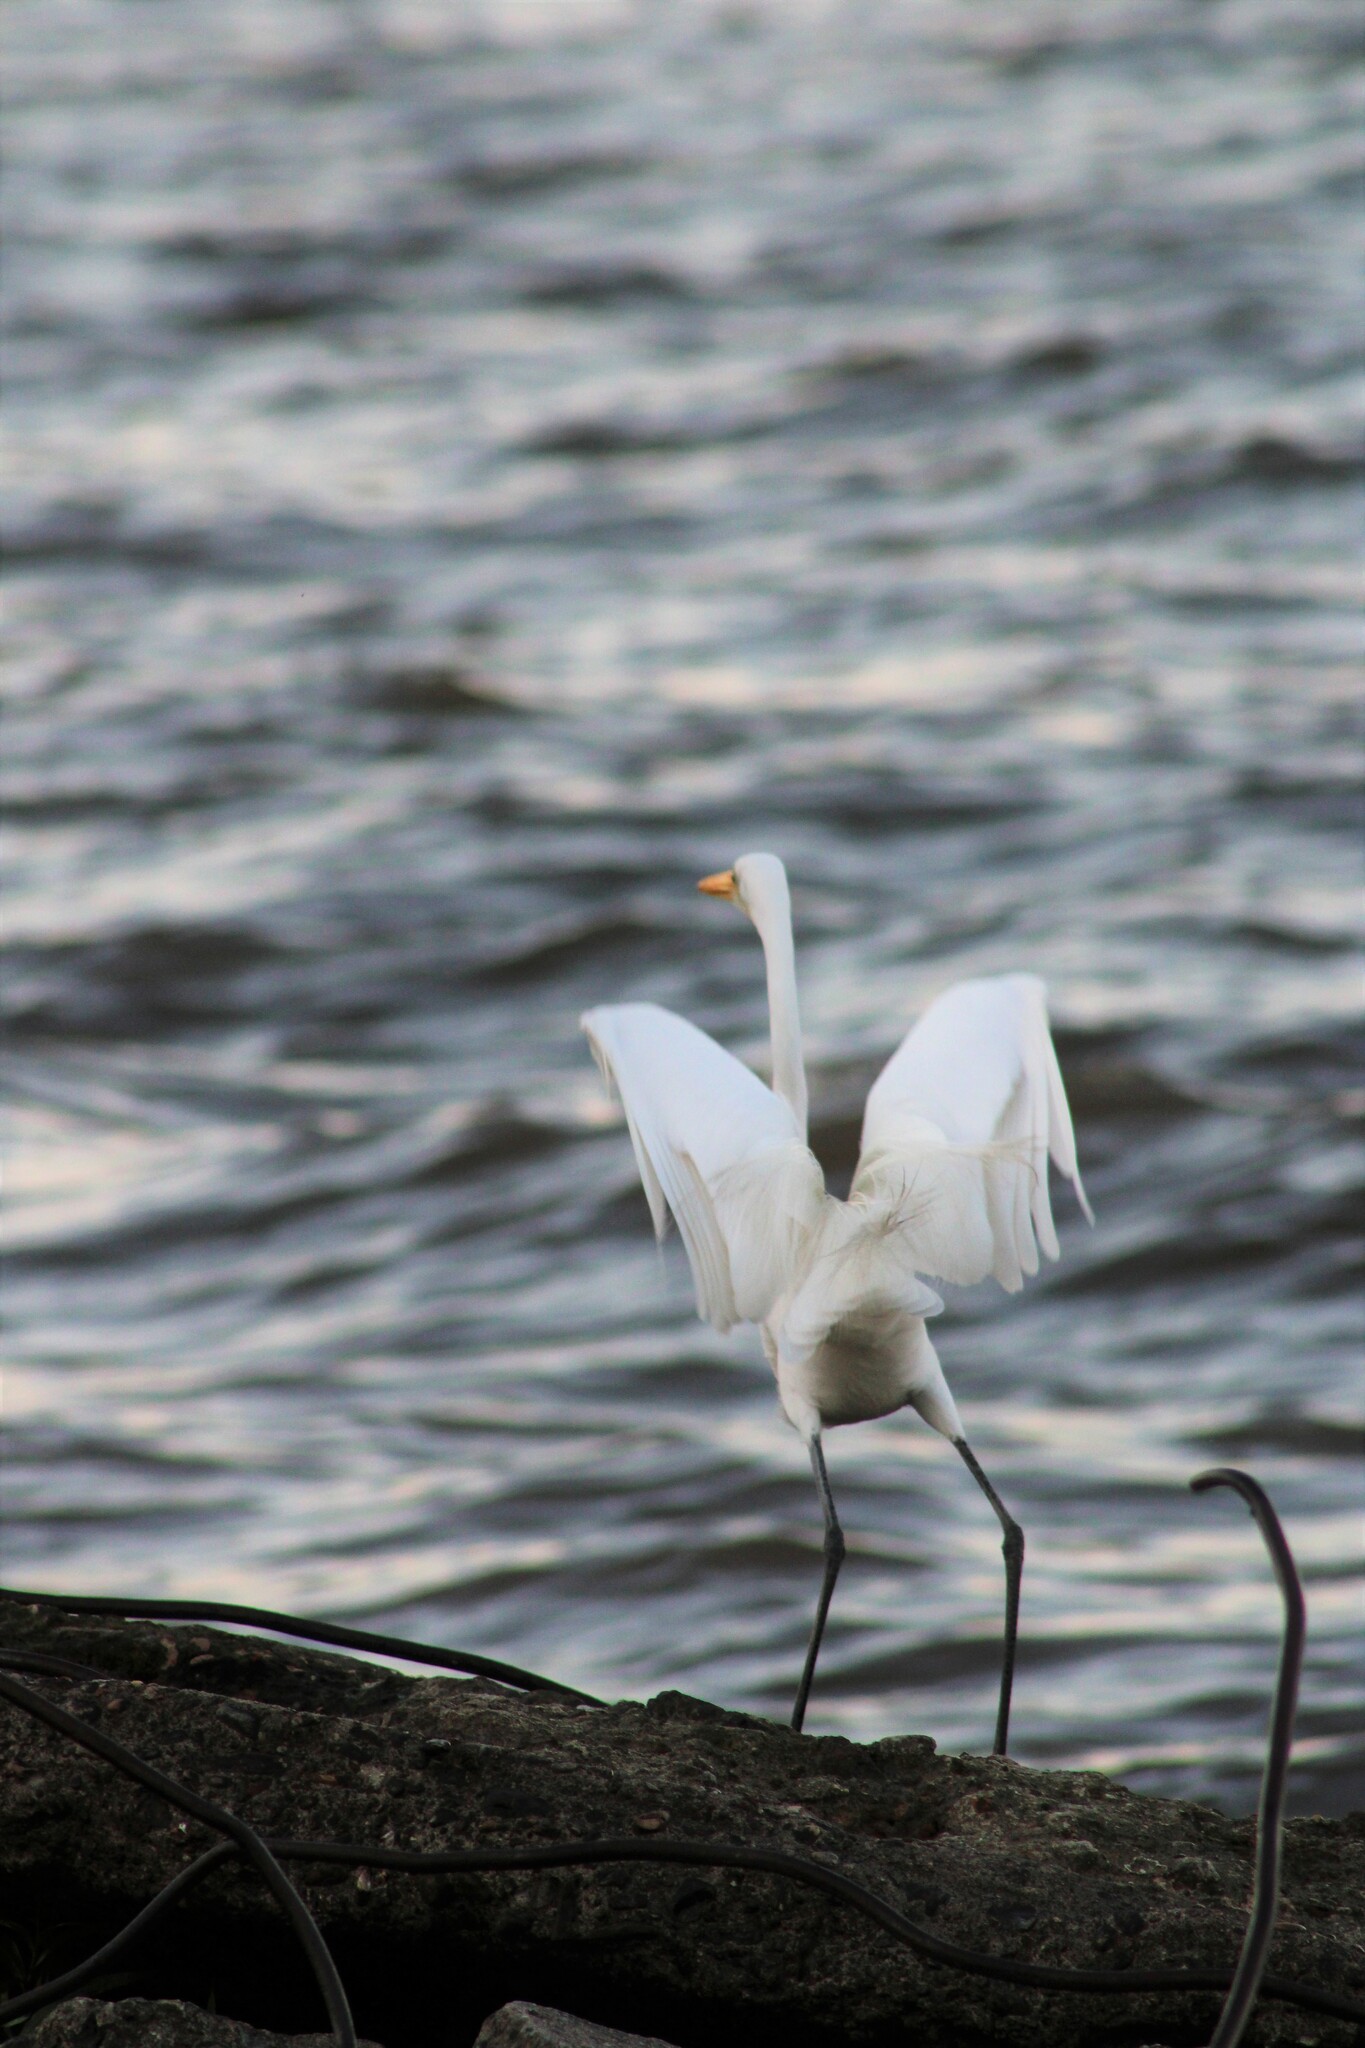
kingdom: Animalia
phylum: Chordata
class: Aves
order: Pelecaniformes
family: Ardeidae
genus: Ardea
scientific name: Ardea alba
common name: Great egret
